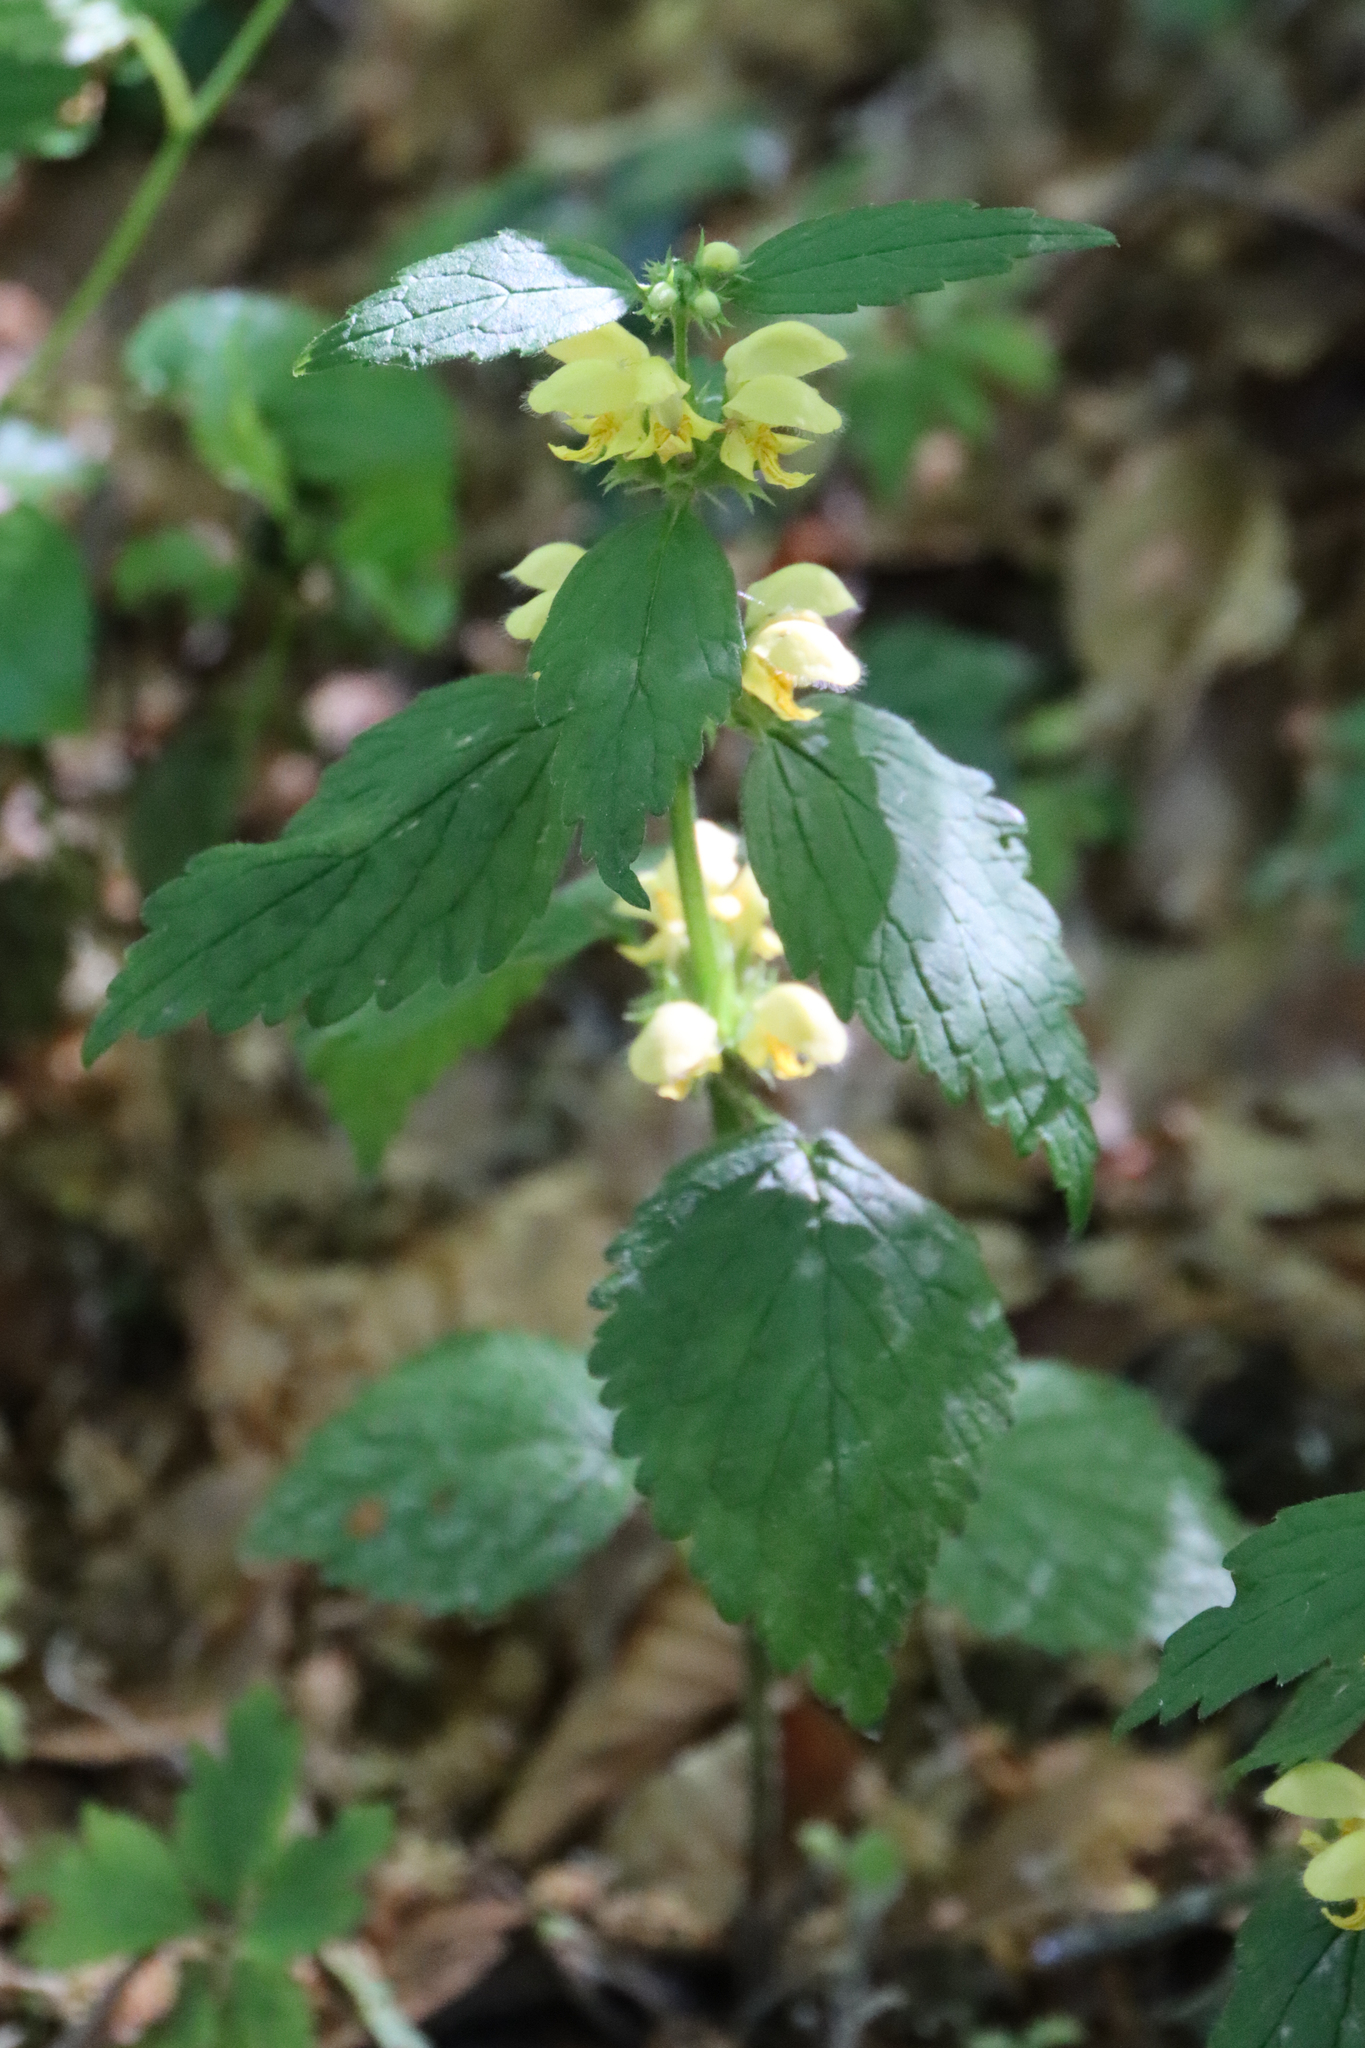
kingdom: Plantae
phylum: Tracheophyta
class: Magnoliopsida
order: Lamiales
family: Lamiaceae
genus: Lamium
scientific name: Lamium galeobdolon
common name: Yellow archangel
